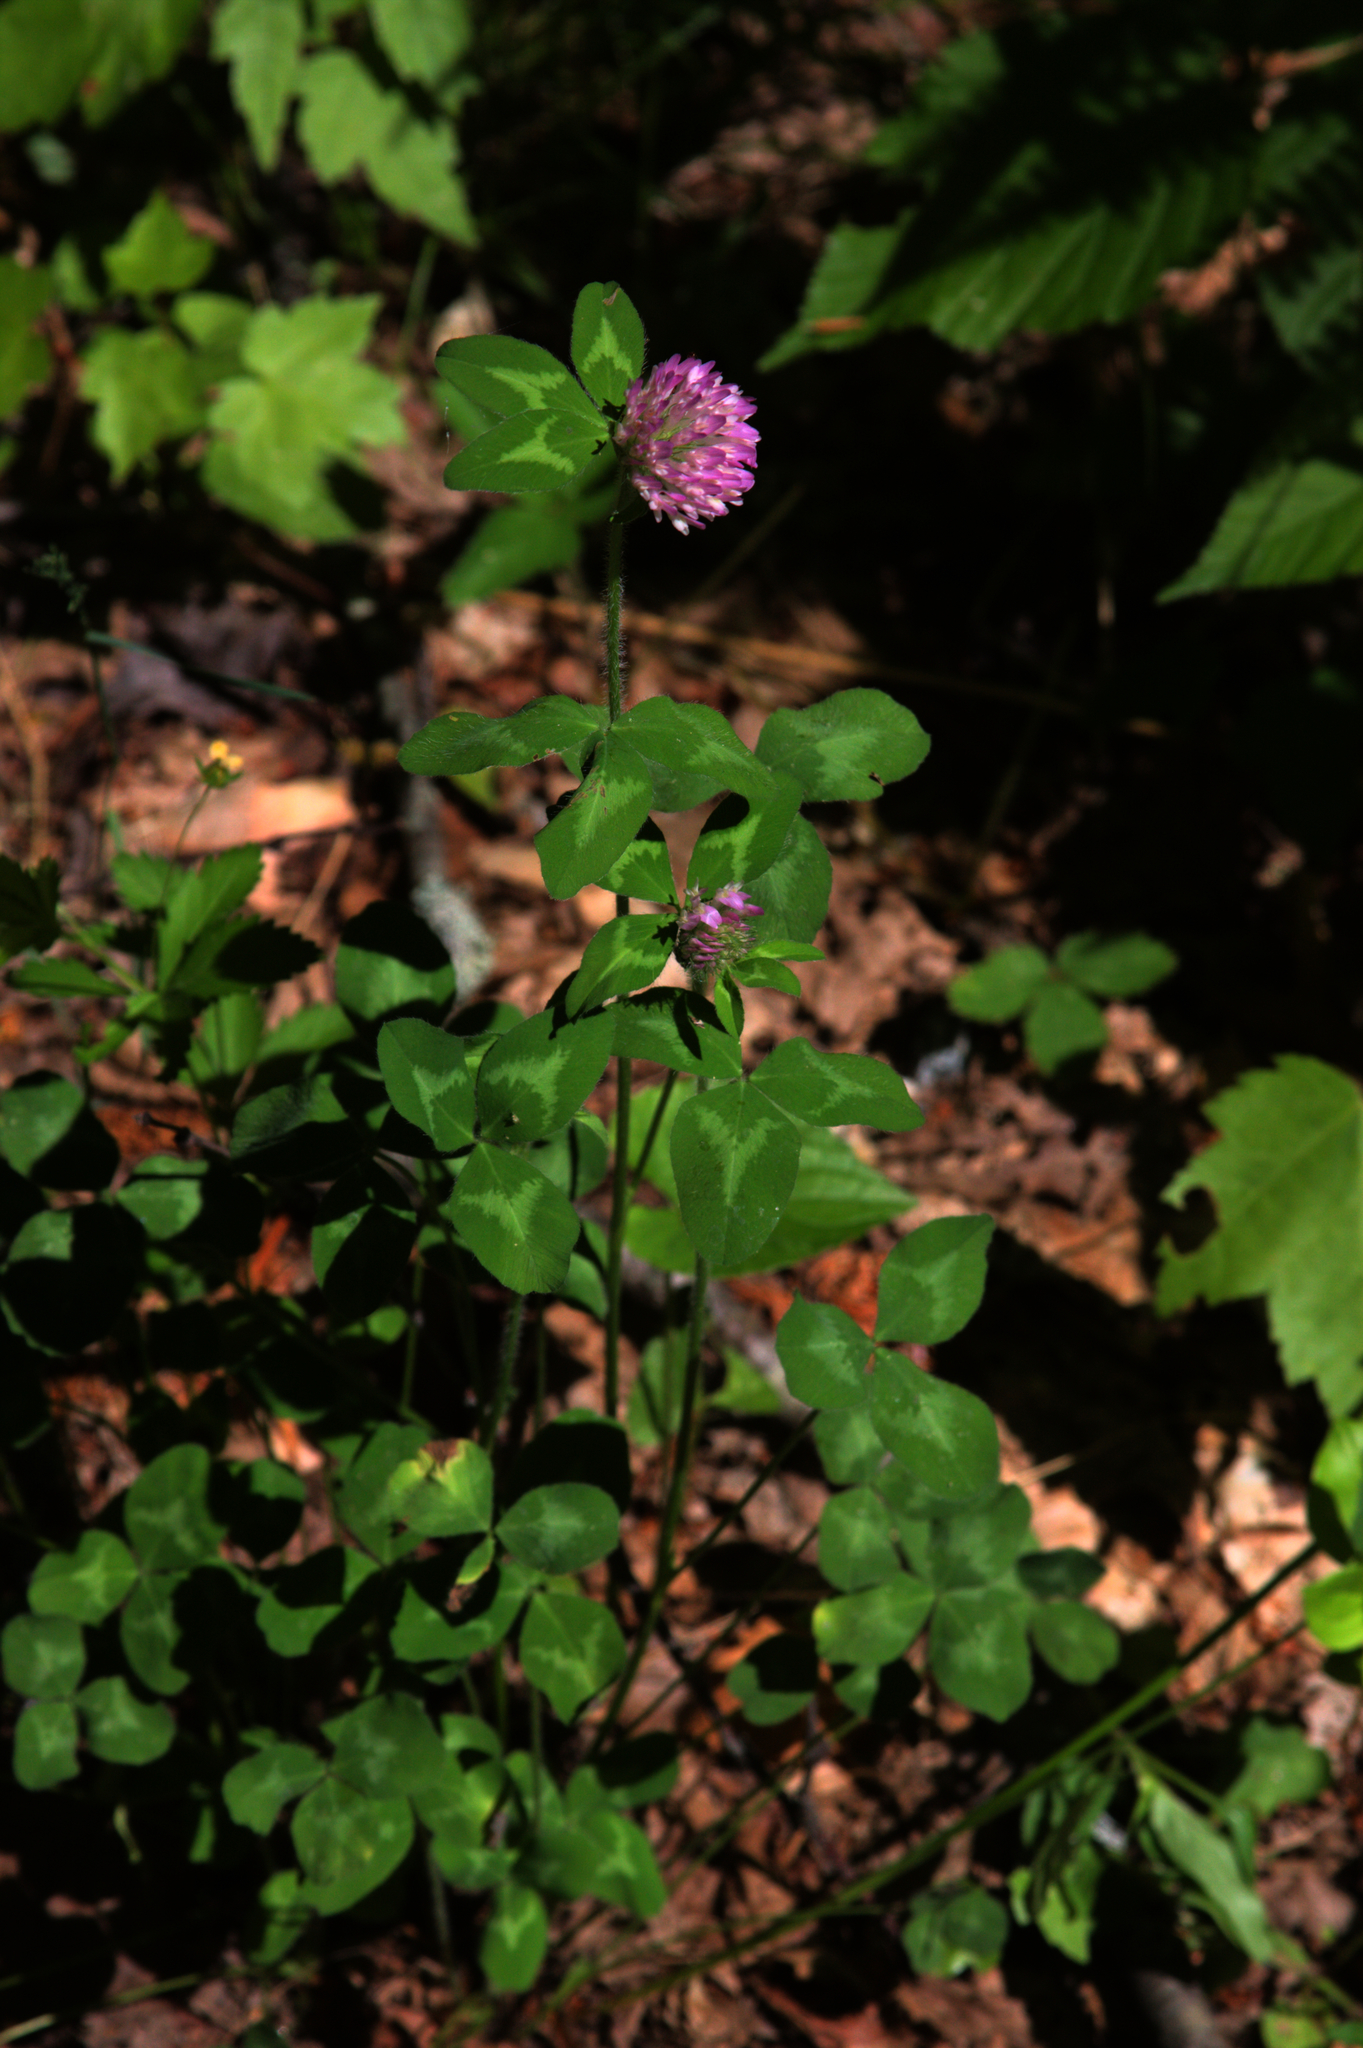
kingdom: Plantae
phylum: Tracheophyta
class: Magnoliopsida
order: Fabales
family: Fabaceae
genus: Trifolium
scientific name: Trifolium pratense
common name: Red clover
